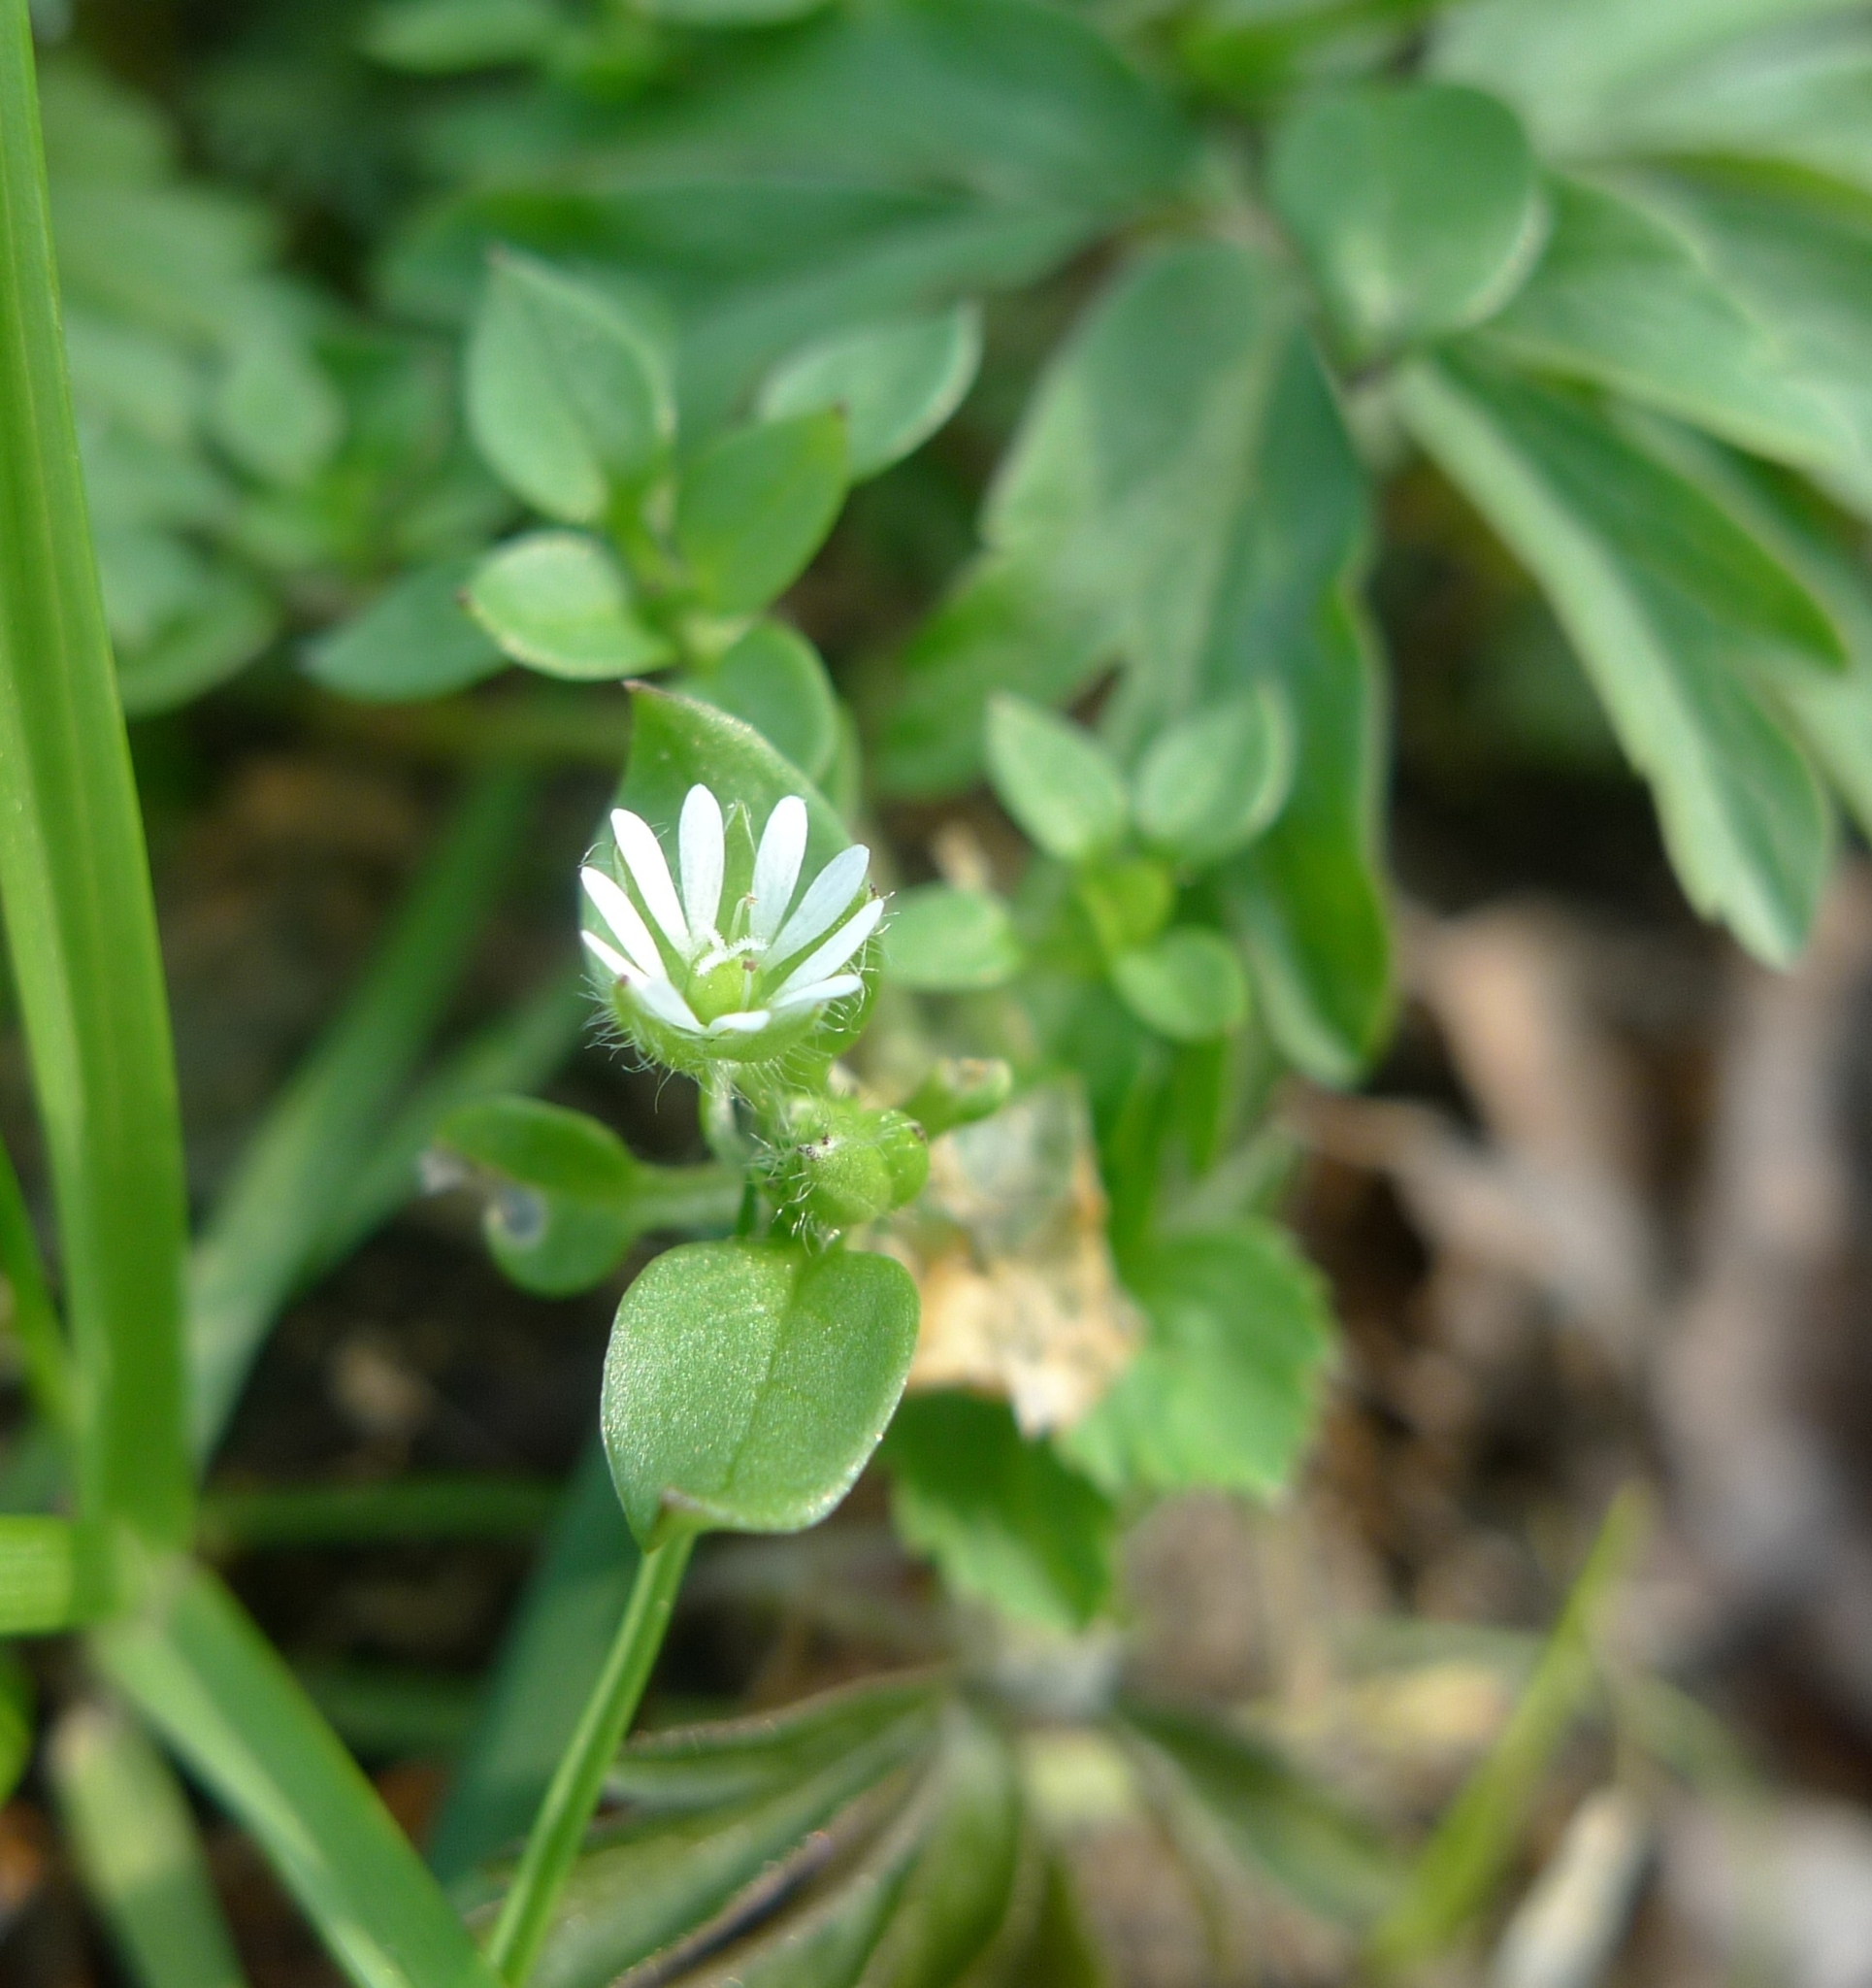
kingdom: Plantae
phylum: Tracheophyta
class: Magnoliopsida
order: Caryophyllales
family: Caryophyllaceae
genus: Stellaria
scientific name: Stellaria media
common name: Common chickweed
